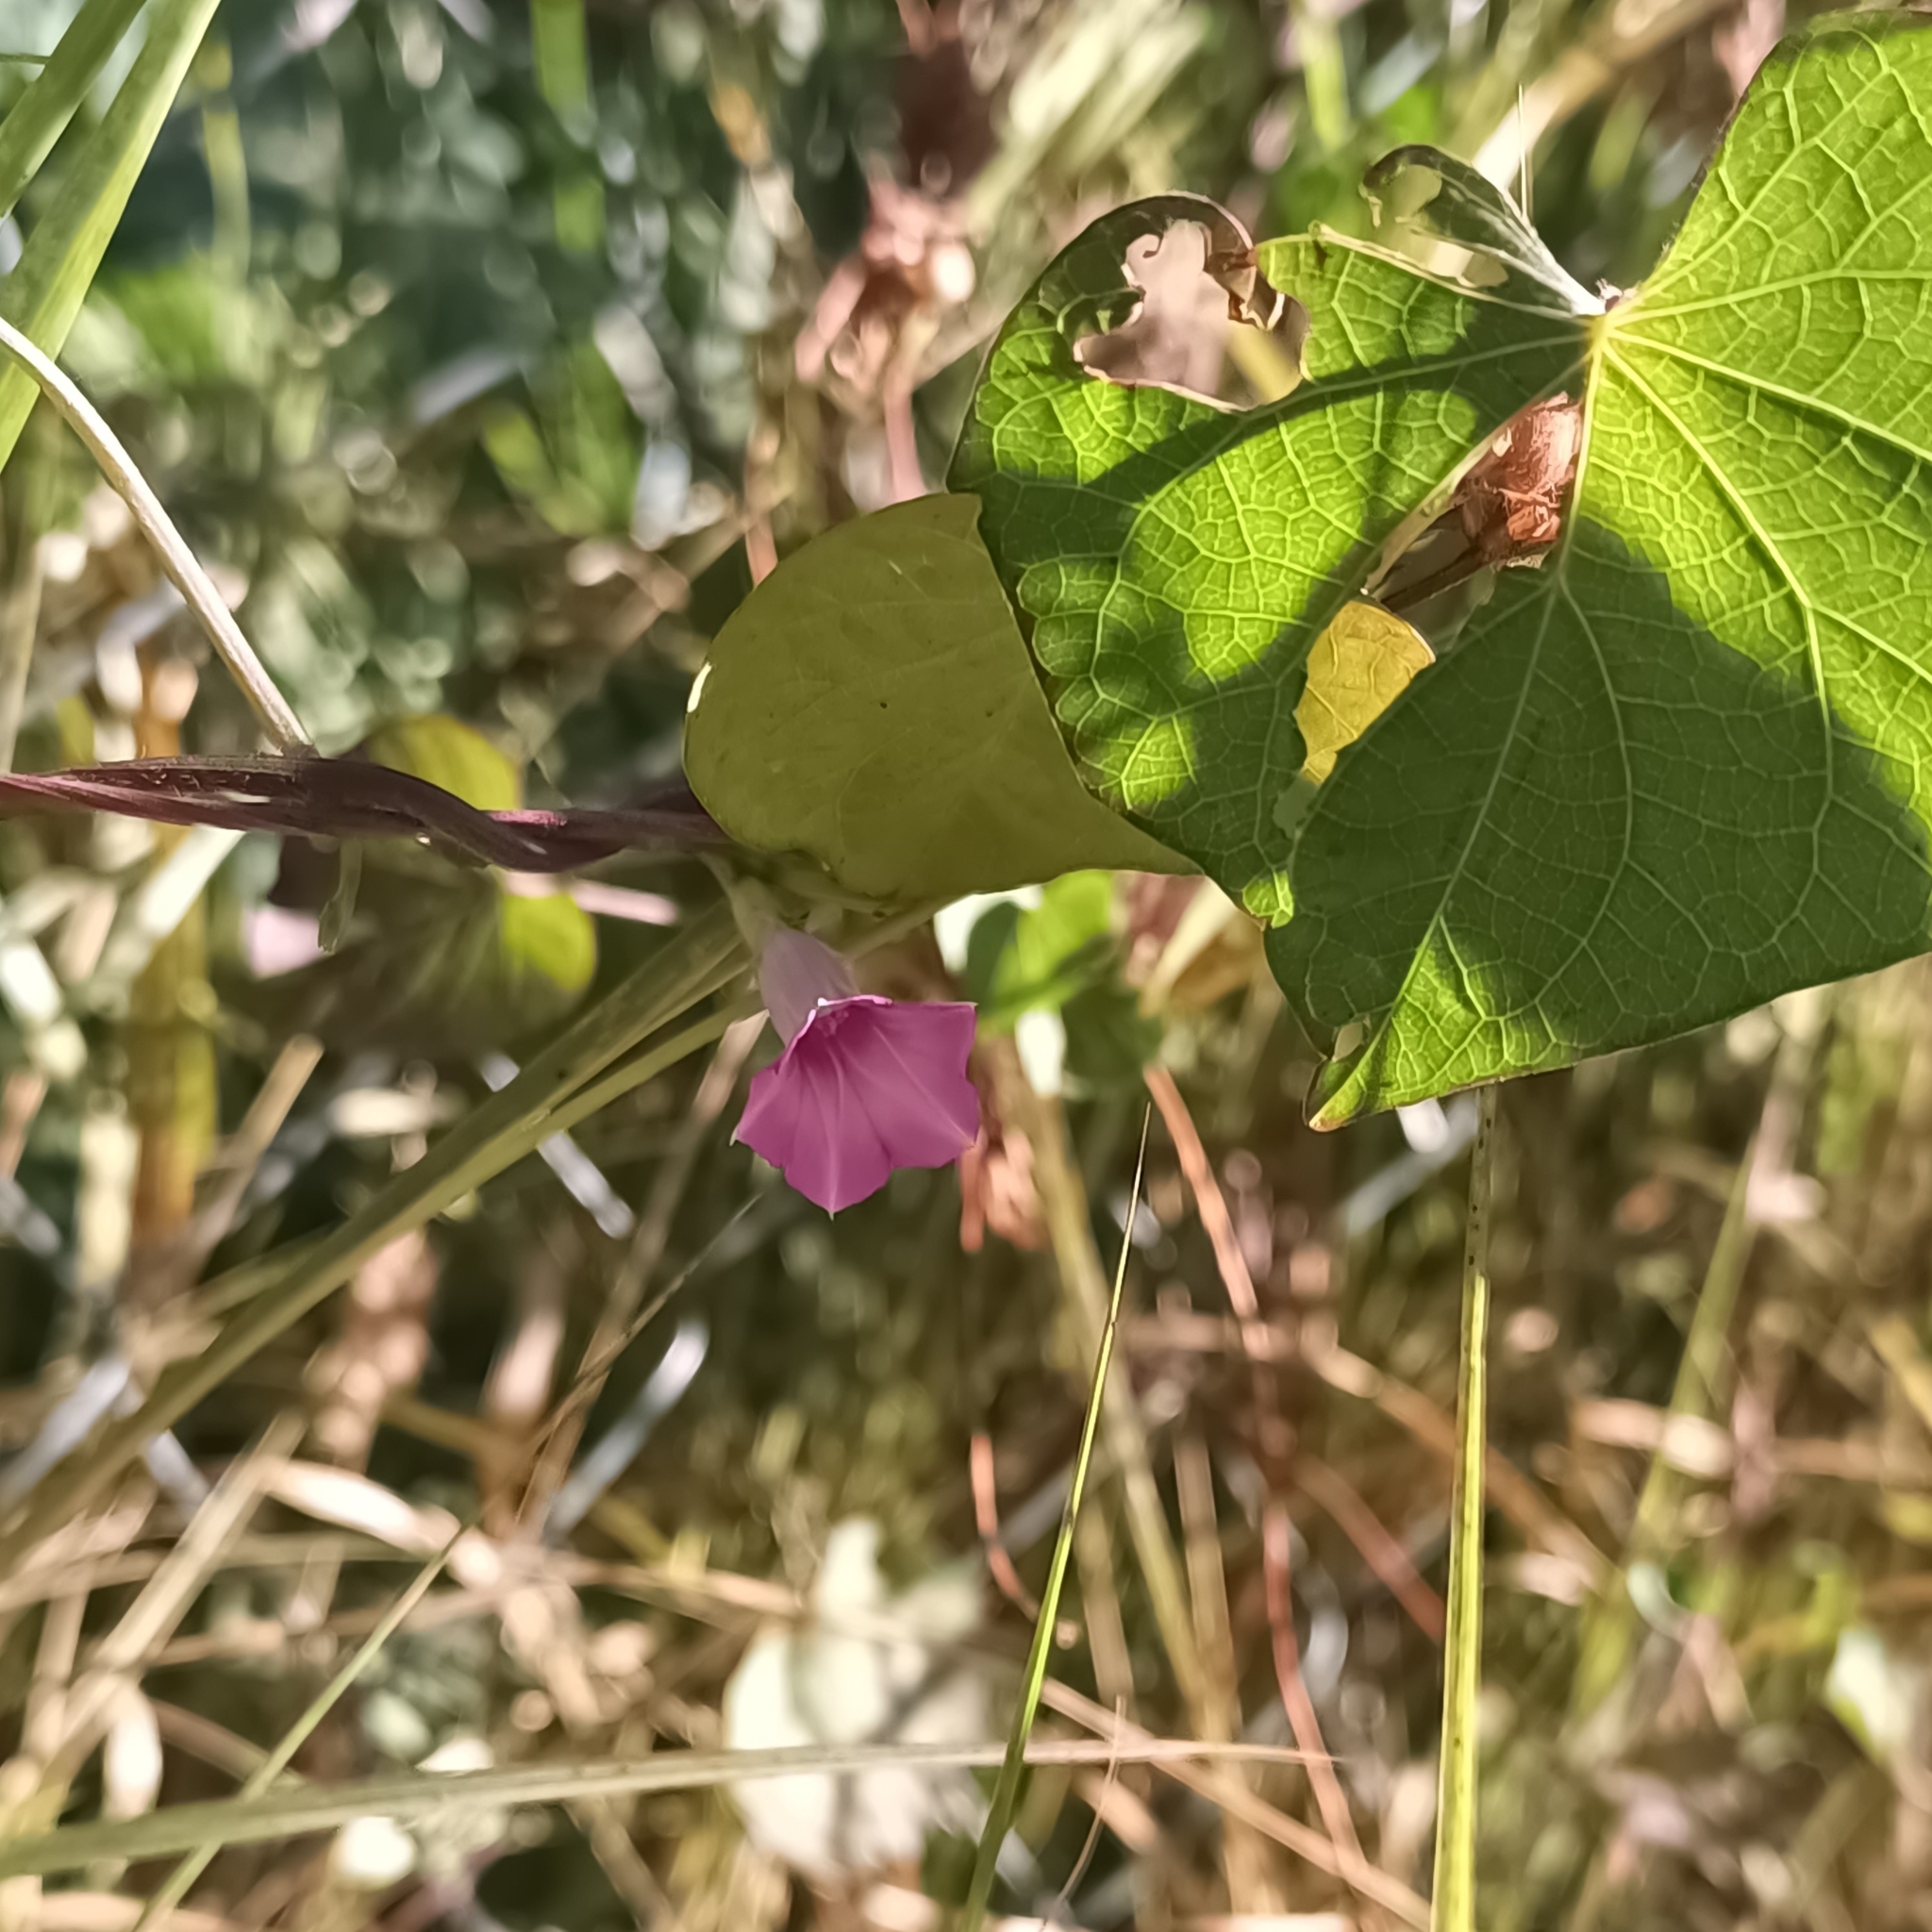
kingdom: Plantae
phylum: Tracheophyta
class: Magnoliopsida
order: Solanales
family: Convolvulaceae
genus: Ipomoea
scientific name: Ipomoea triloba
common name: Little-bell
